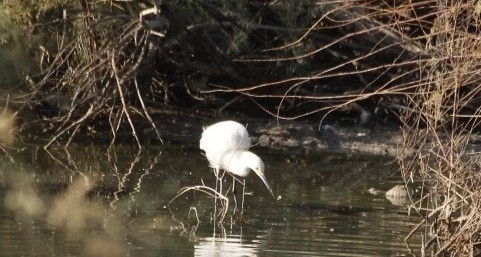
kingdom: Animalia
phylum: Chordata
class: Aves
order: Pelecaniformes
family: Ardeidae
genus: Egretta
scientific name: Egretta thula
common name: Snowy egret
